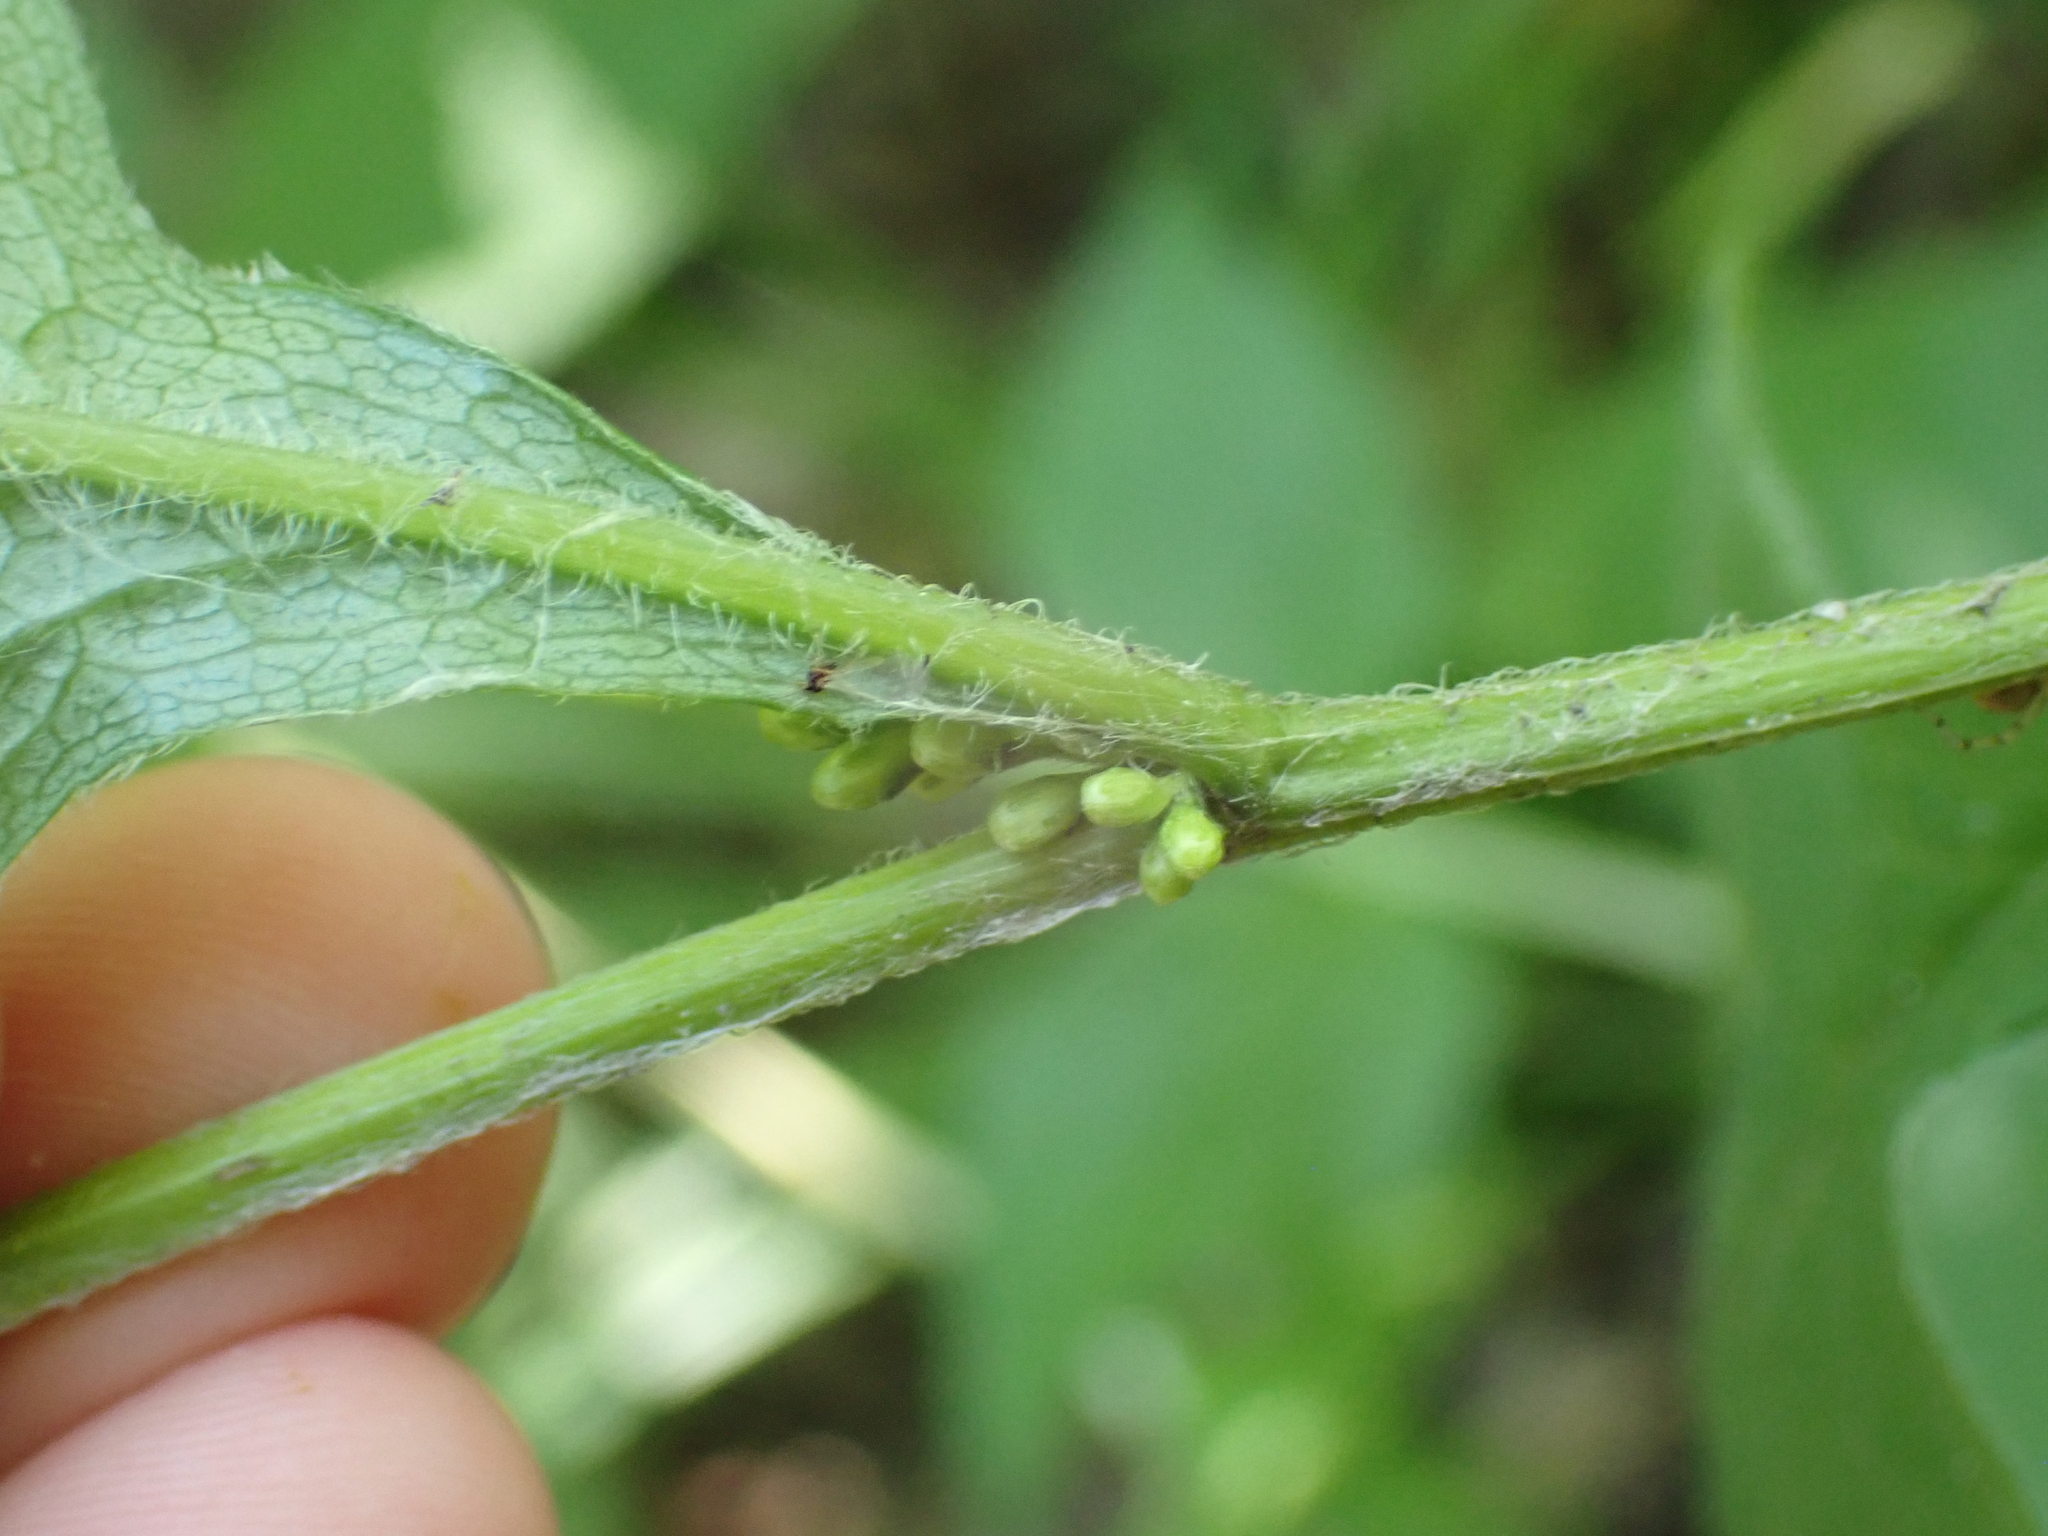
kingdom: Plantae
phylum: Tracheophyta
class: Magnoliopsida
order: Asterales
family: Asteraceae
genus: Solidago
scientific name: Solidago flexicaulis
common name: Zig-zag goldenrod
